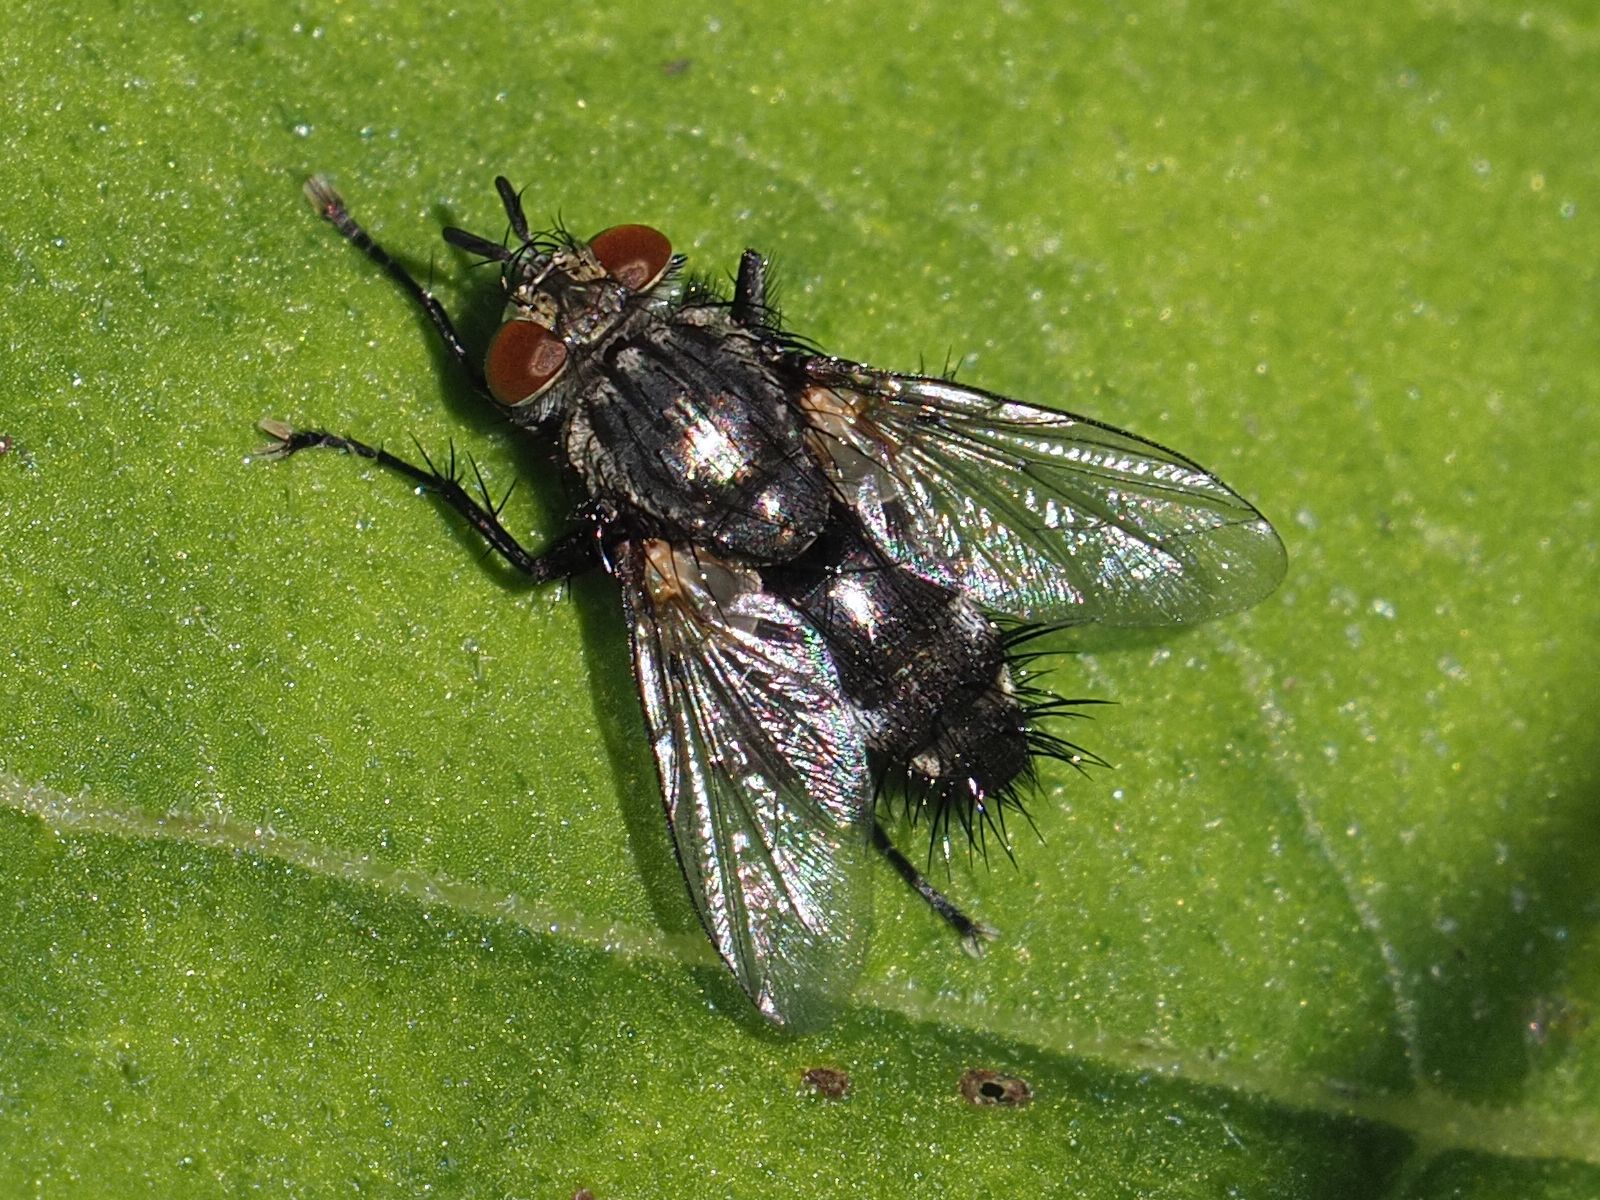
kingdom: Animalia
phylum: Arthropoda
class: Insecta
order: Diptera
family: Tachinidae
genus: Voria
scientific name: Voria ruralis
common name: Parasitic fly
